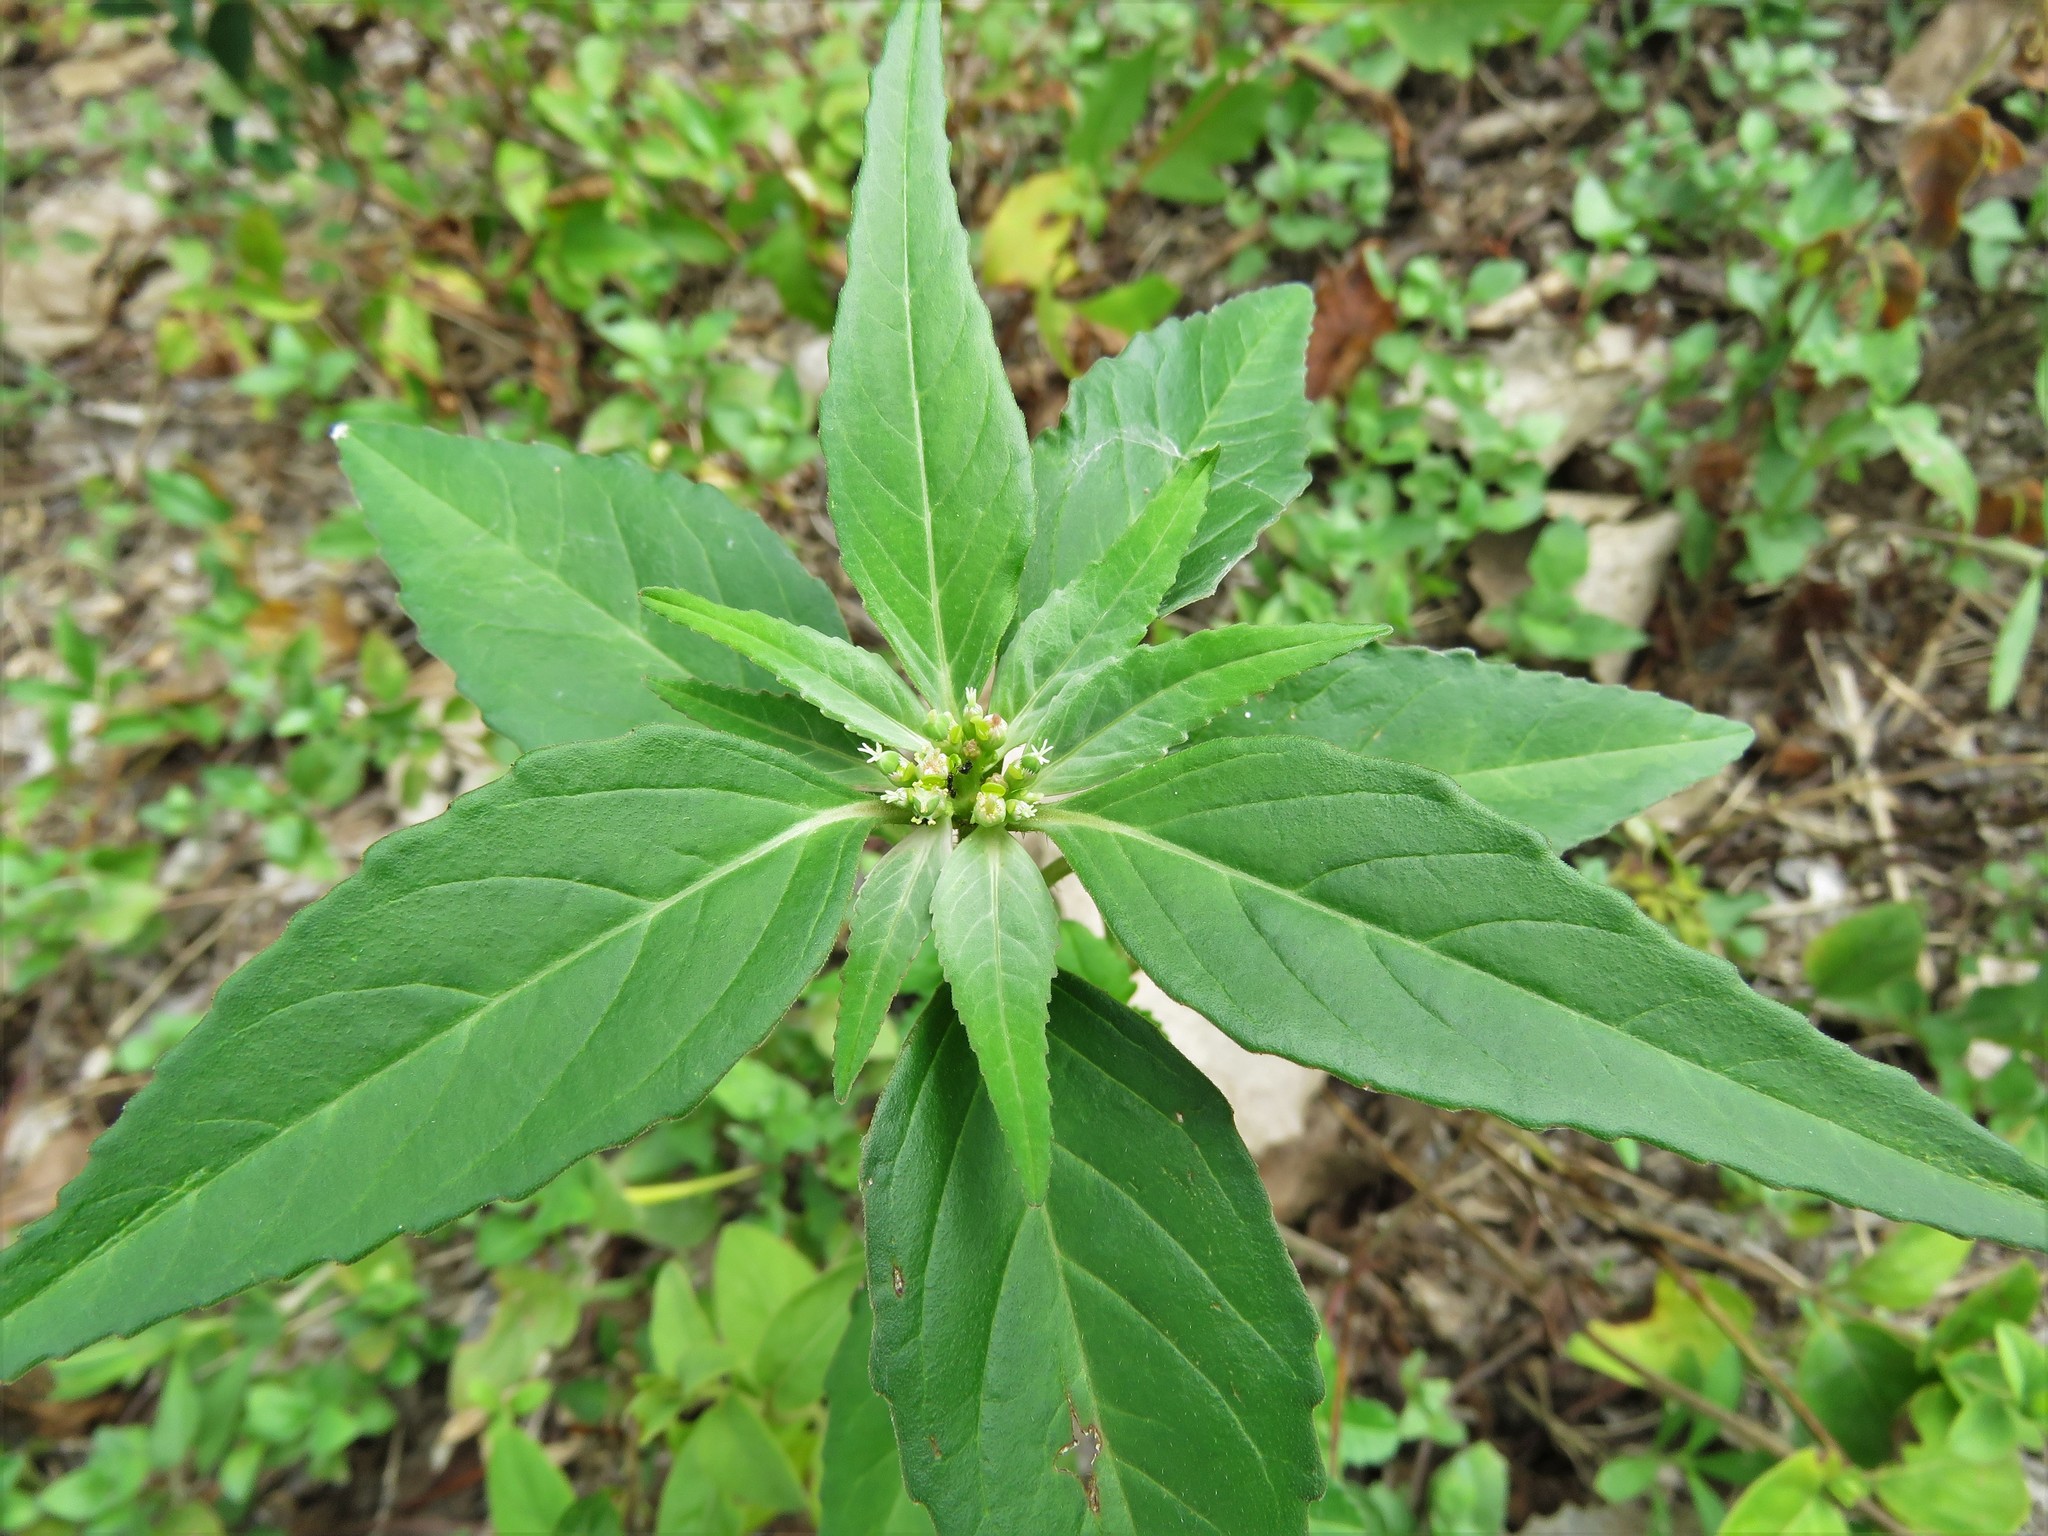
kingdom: Plantae
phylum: Tracheophyta
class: Magnoliopsida
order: Malpighiales
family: Euphorbiaceae
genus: Euphorbia
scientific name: Euphorbia dentata
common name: Dentate spurge
